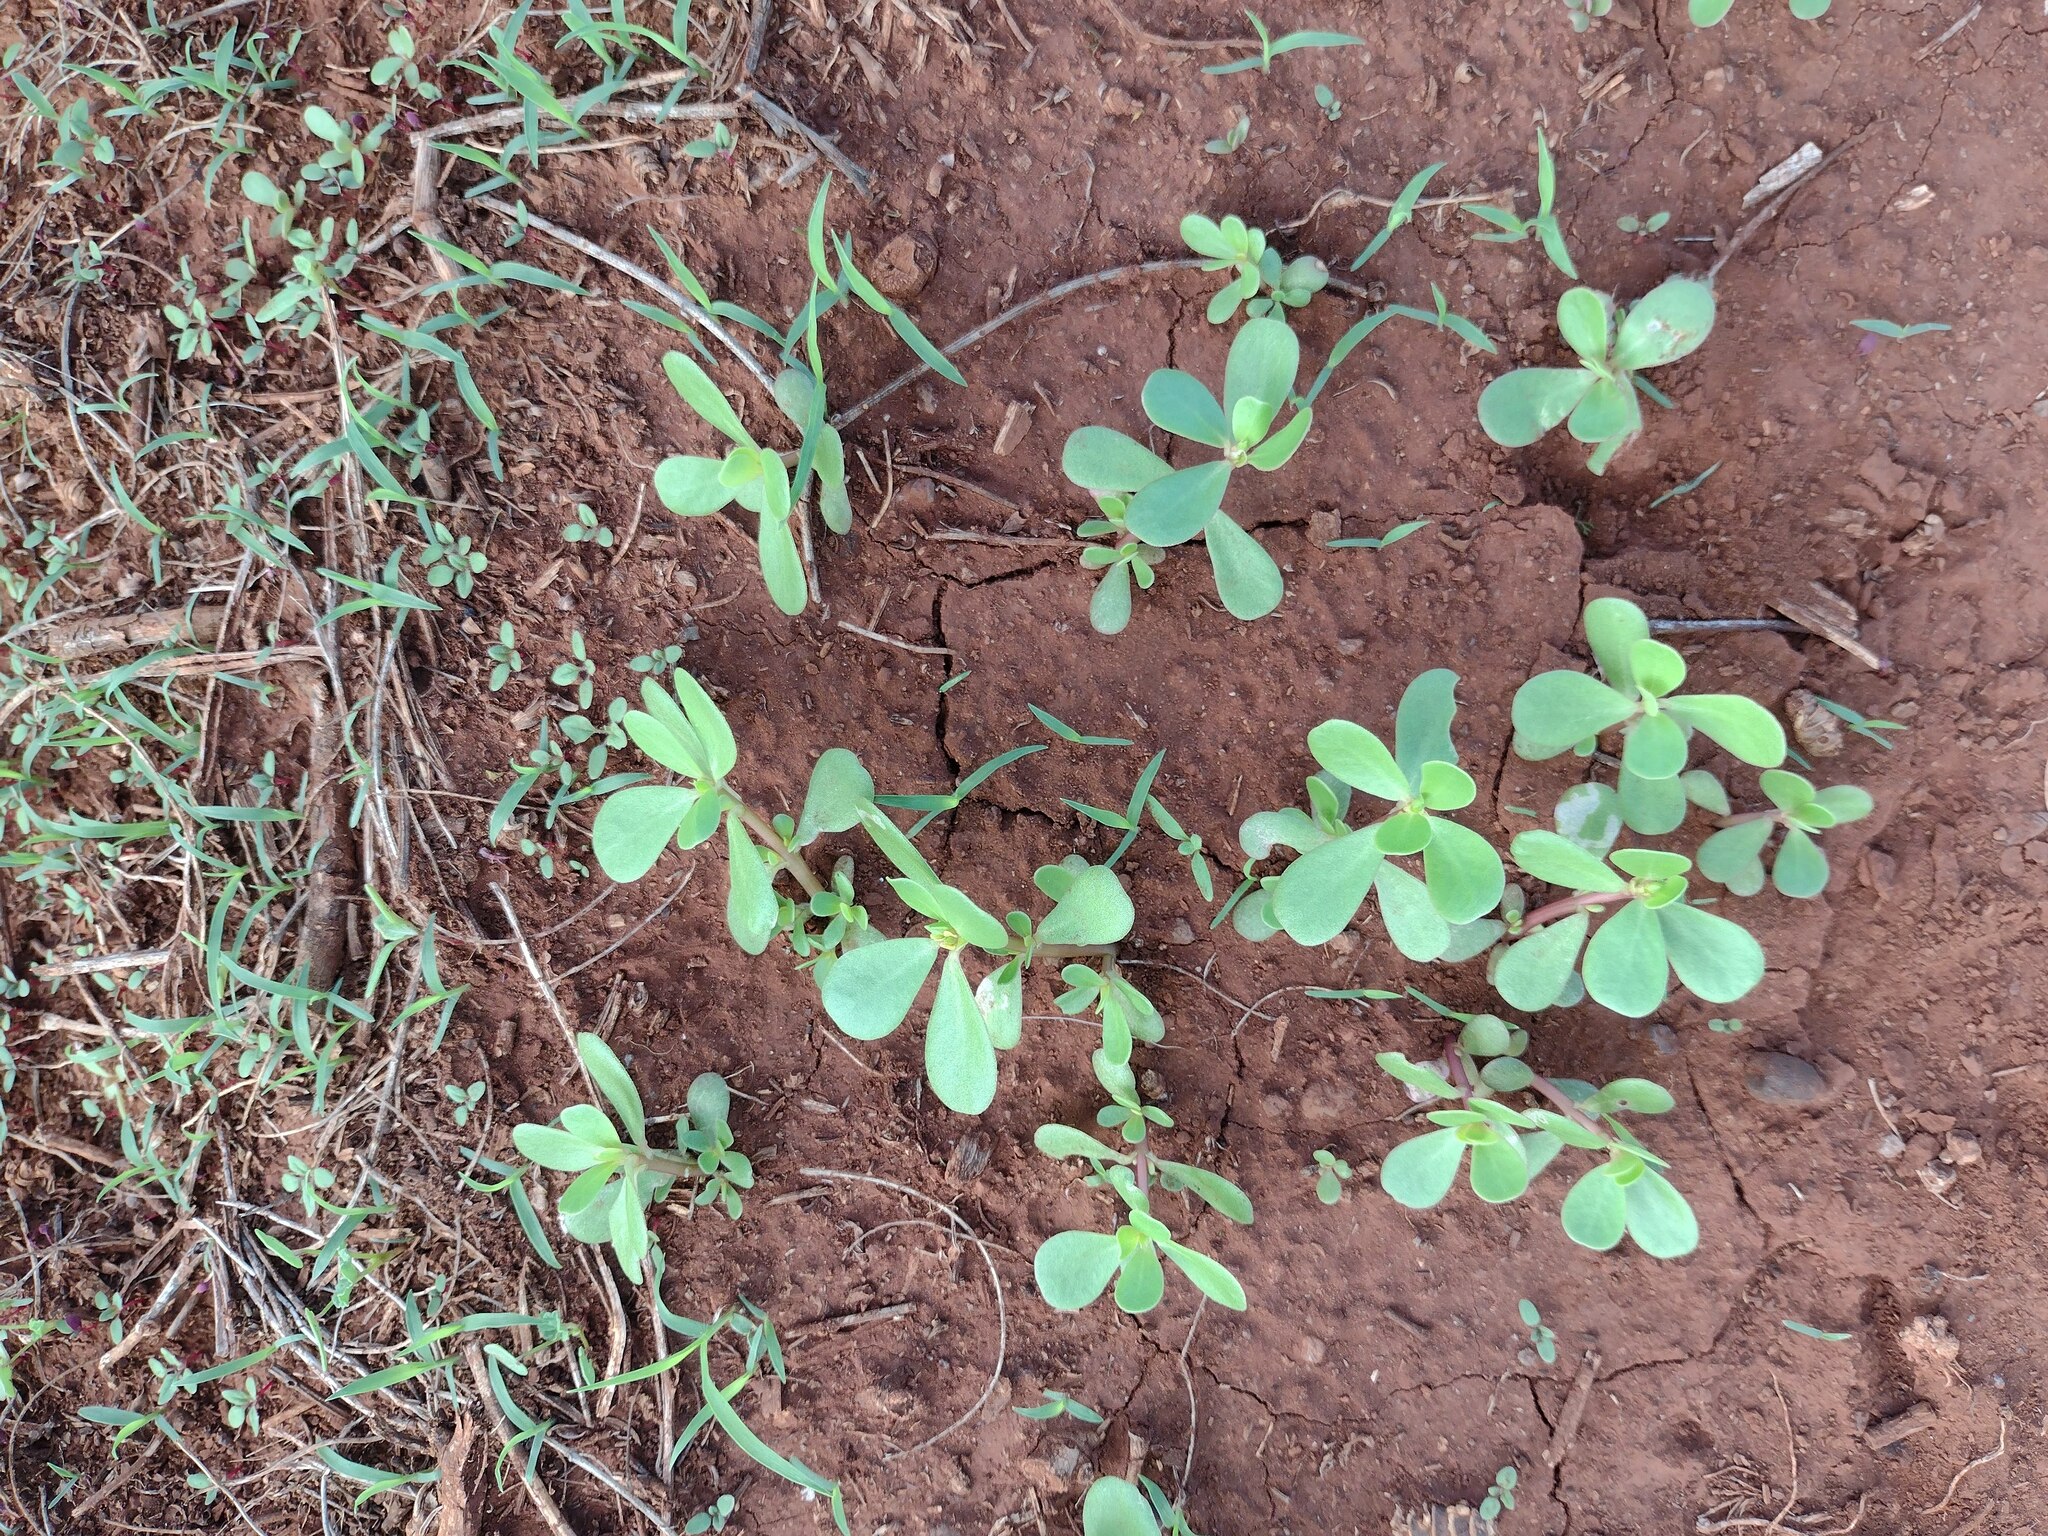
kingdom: Plantae
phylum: Tracheophyta
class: Magnoliopsida
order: Caryophyllales
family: Portulacaceae
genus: Portulaca
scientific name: Portulaca oleracea
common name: Common purslane
